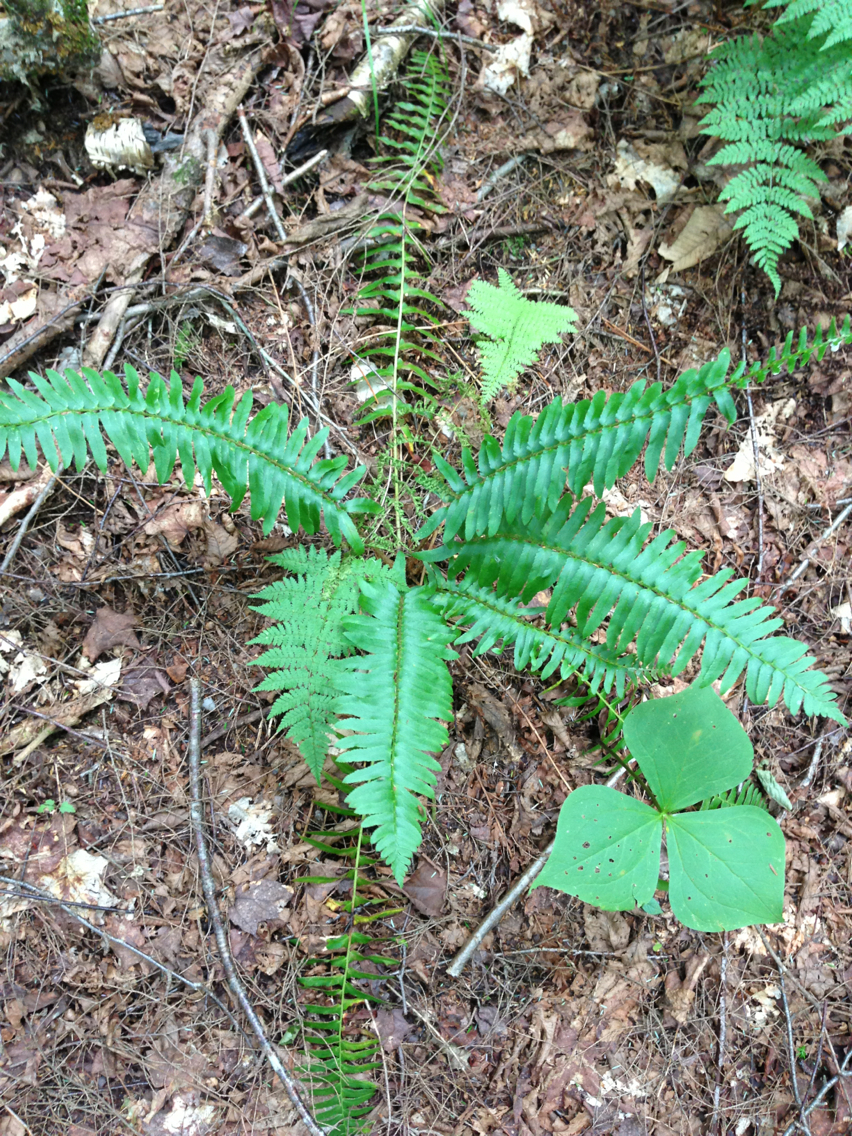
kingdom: Plantae
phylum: Tracheophyta
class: Liliopsida
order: Liliales
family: Melanthiaceae
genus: Trillium
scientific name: Trillium erectum
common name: Purple trillium
